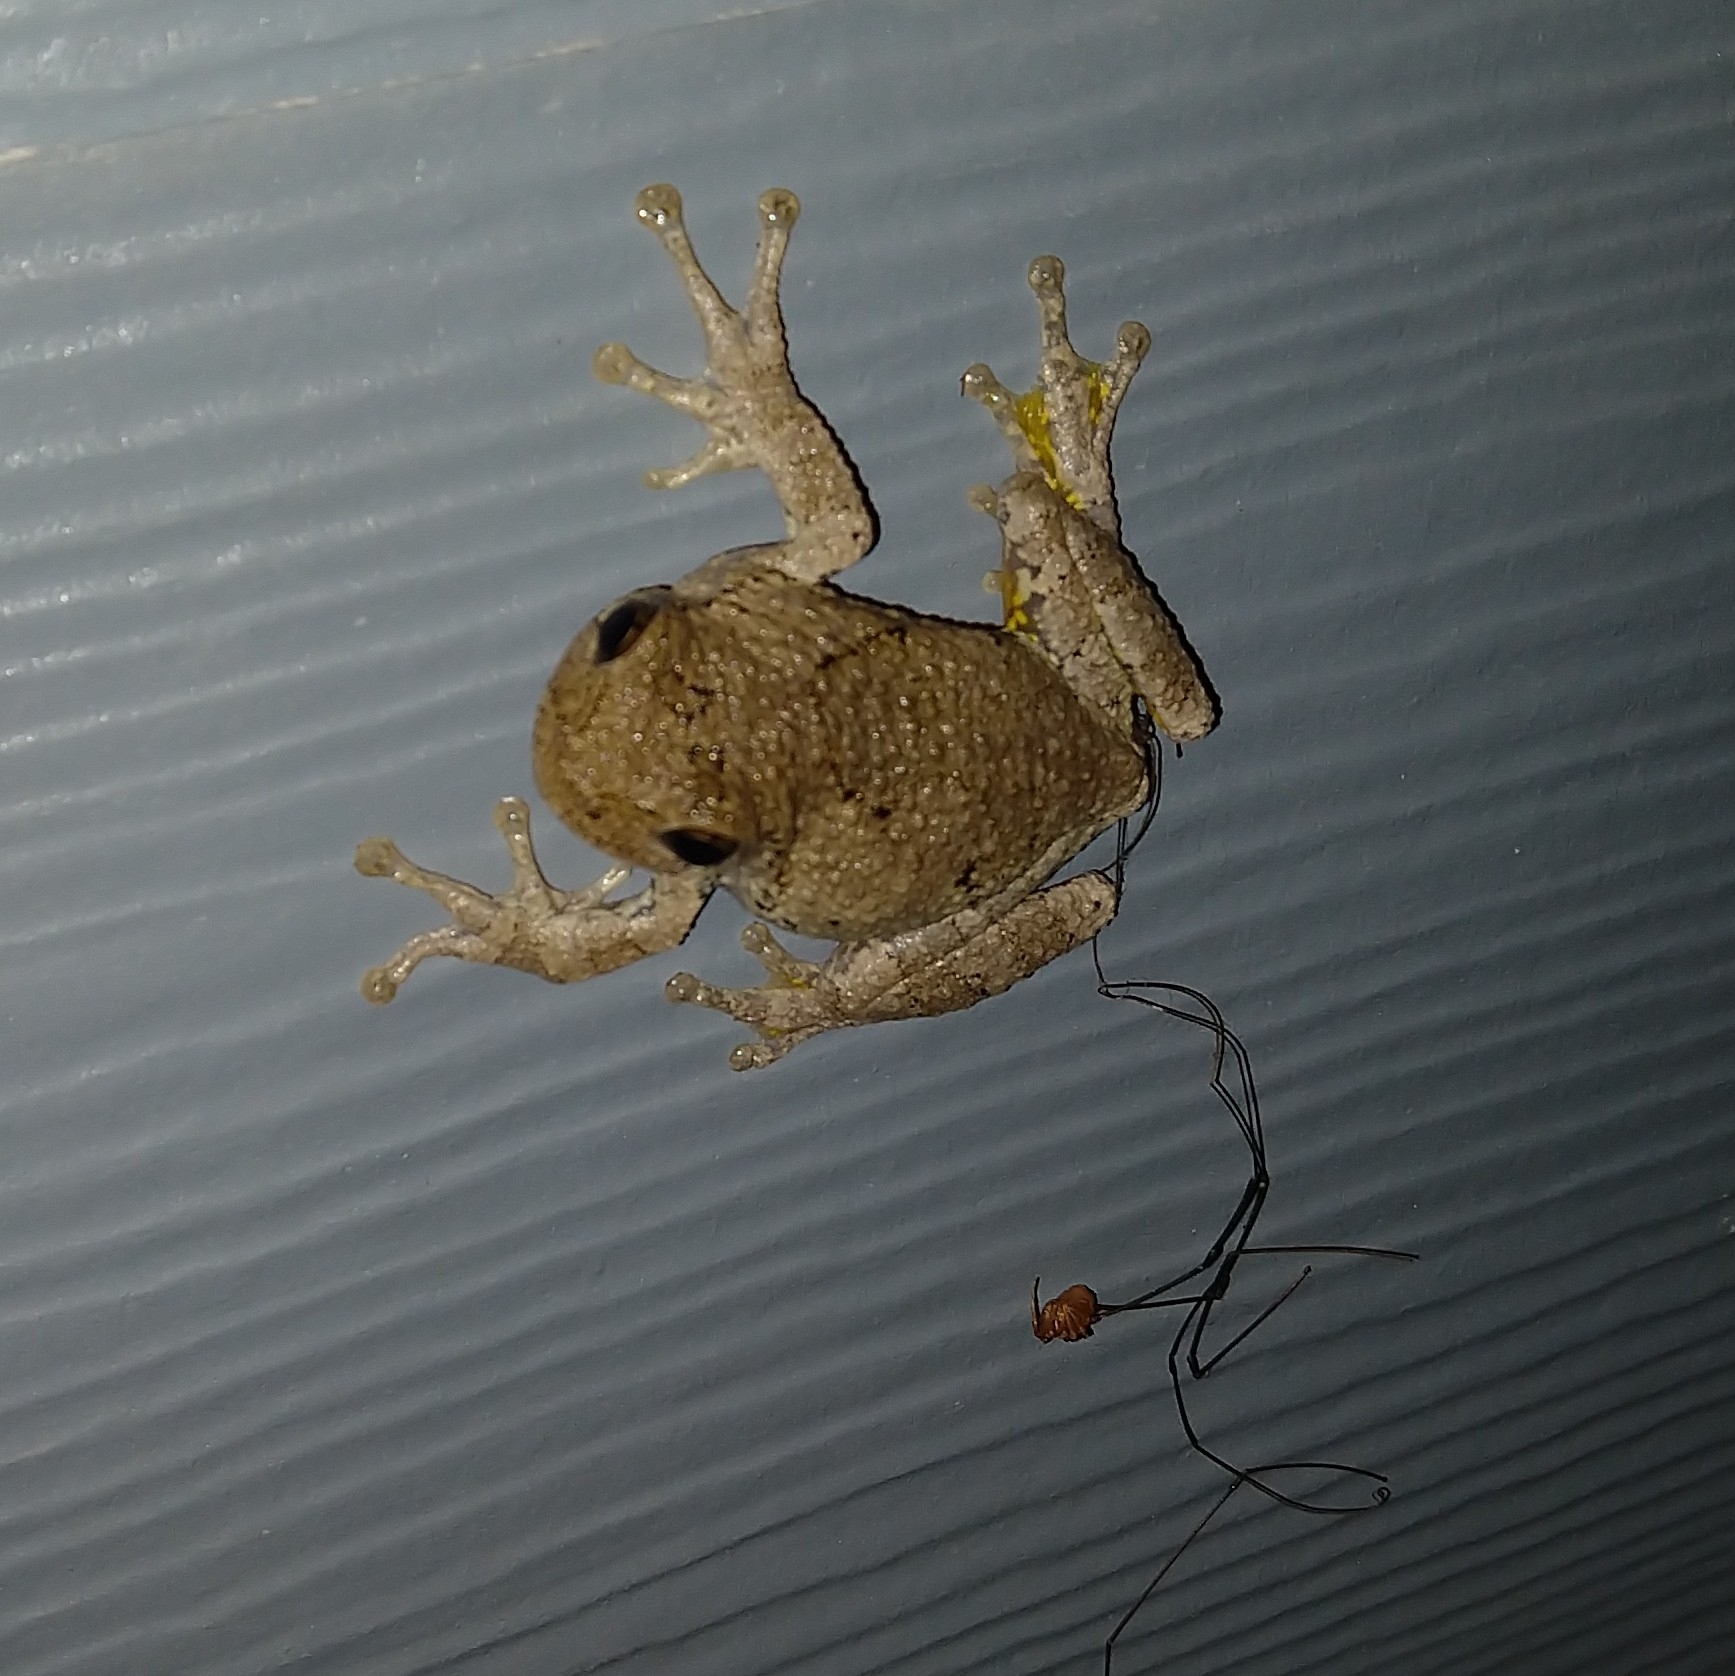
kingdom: Animalia
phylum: Chordata
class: Amphibia
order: Anura
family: Hylidae
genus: Dryophytes
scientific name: Dryophytes chrysoscelis
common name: Cope's gray treefrog
